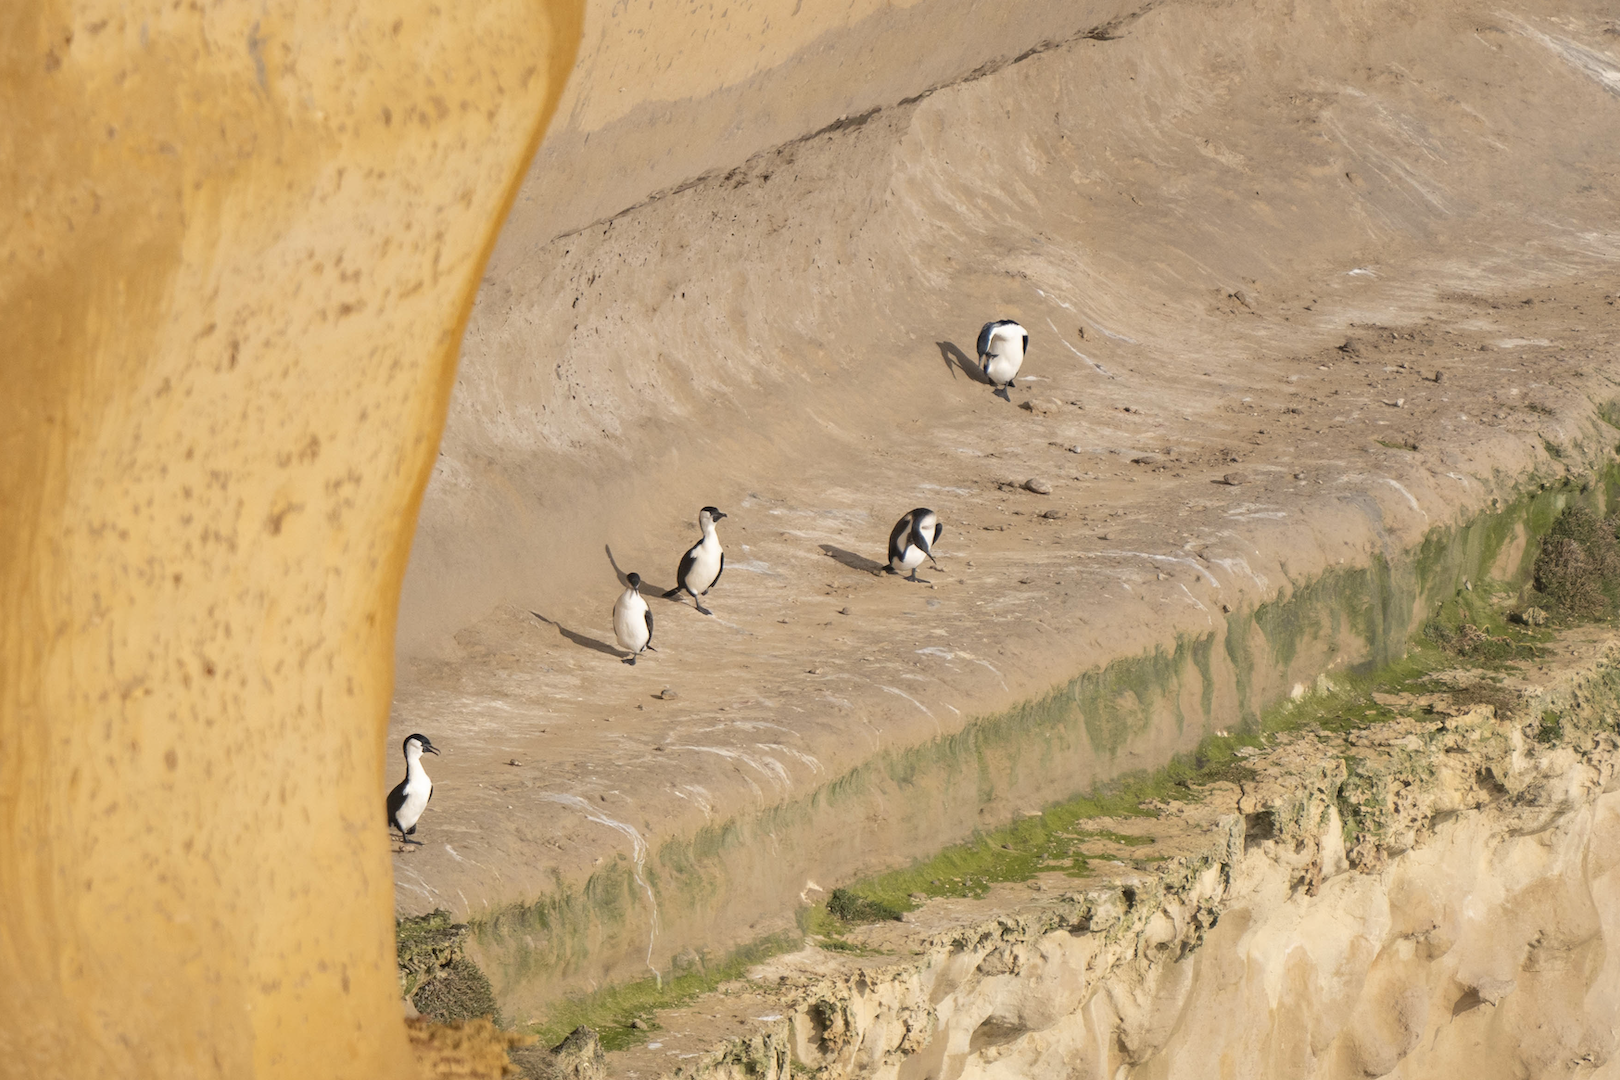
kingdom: Animalia
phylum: Chordata
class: Aves
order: Suliformes
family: Phalacrocoracidae
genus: Phalacrocorax
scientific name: Phalacrocorax fuscescens
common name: Black-faced cormorant
